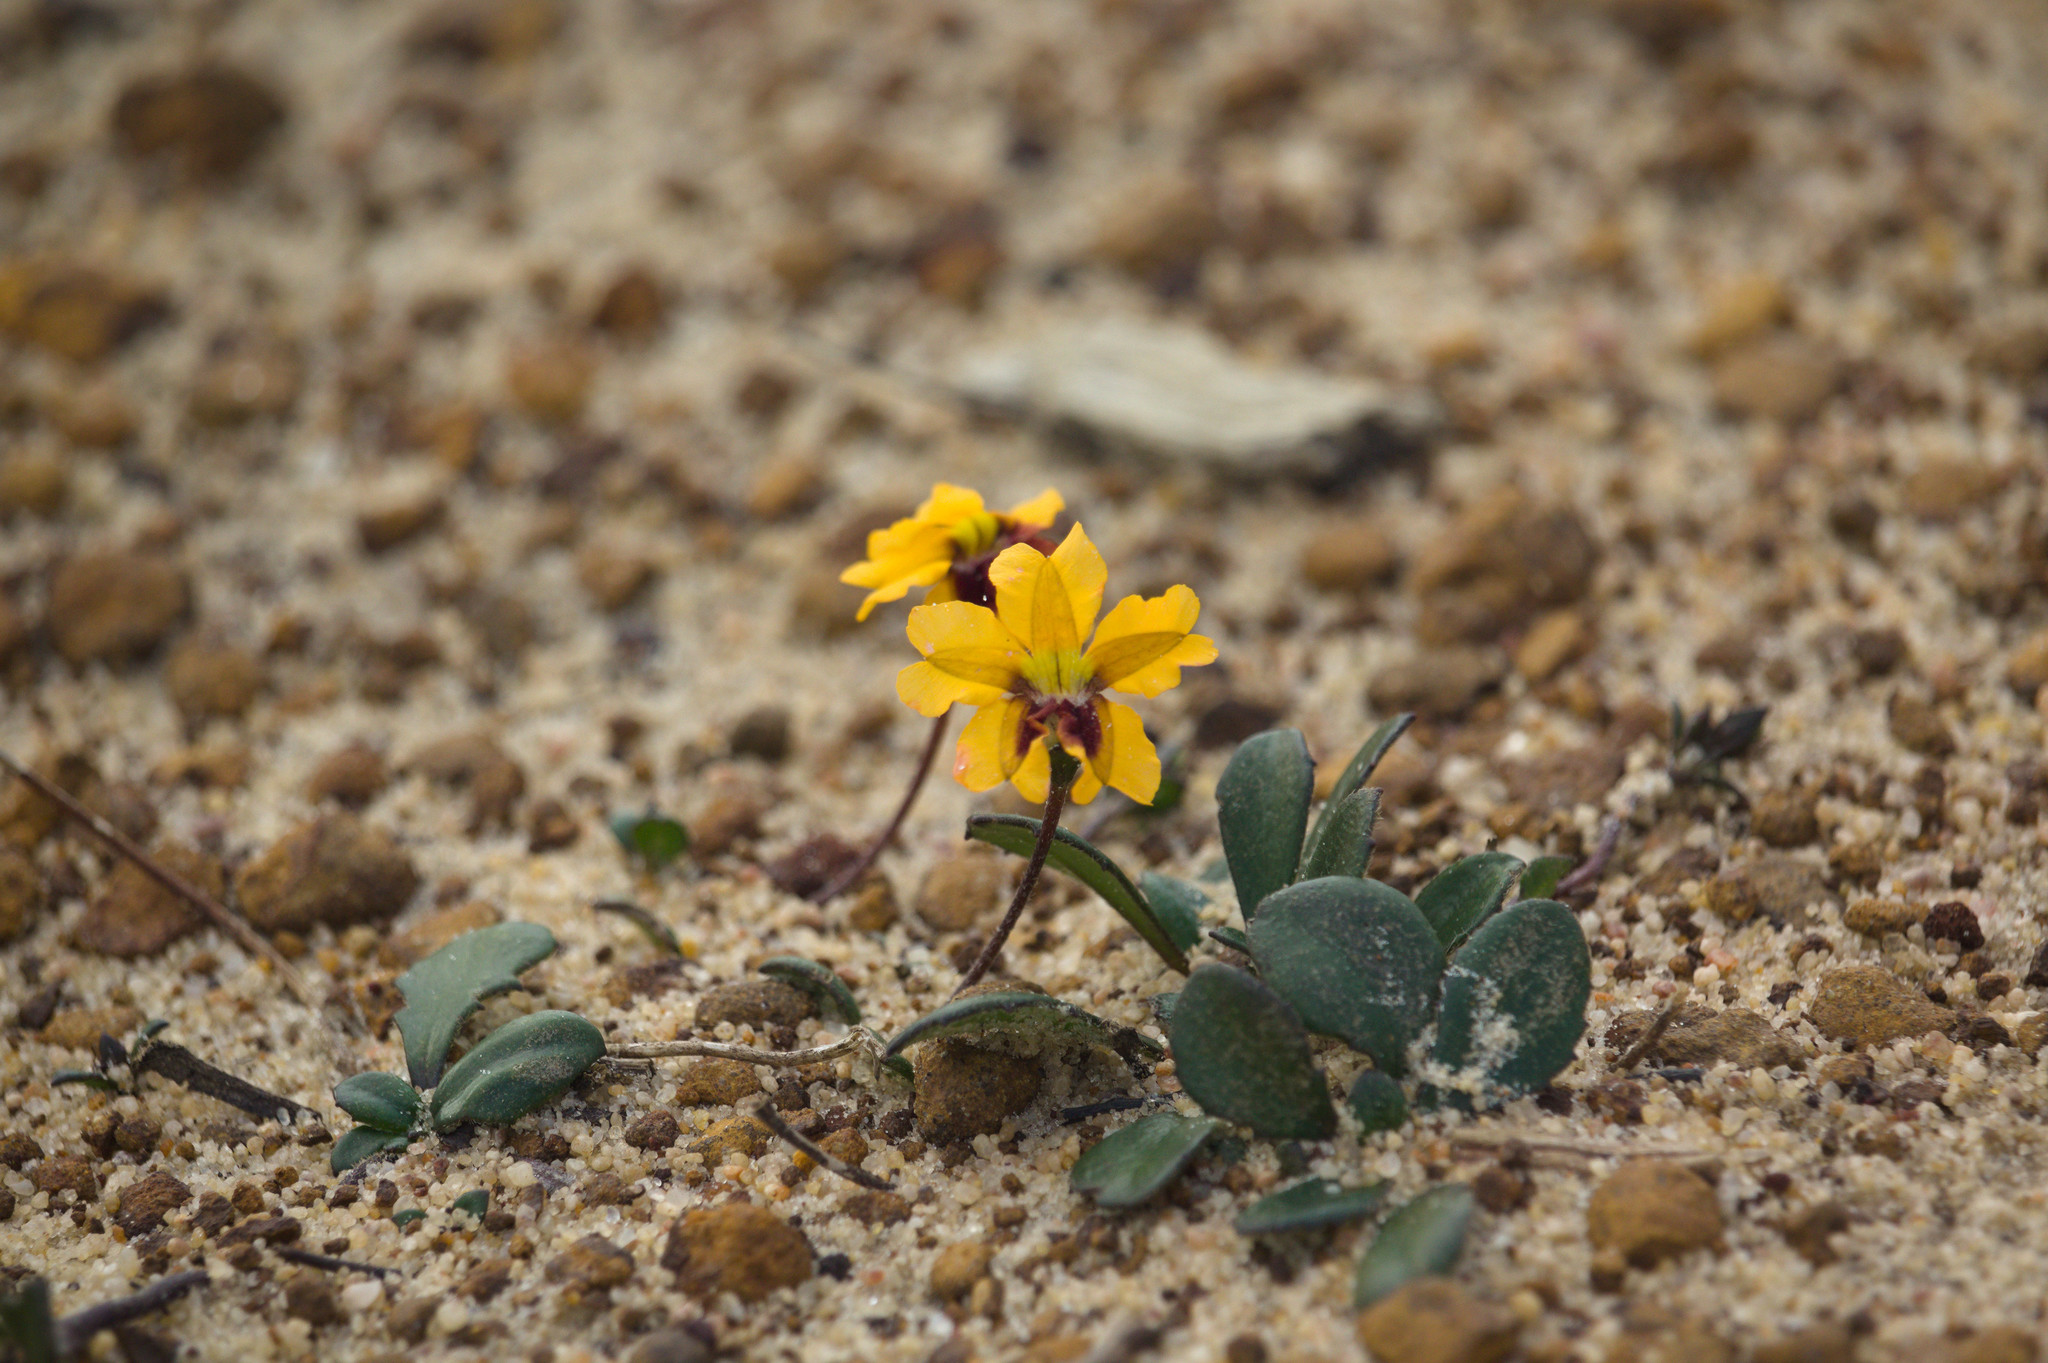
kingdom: Plantae
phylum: Tracheophyta
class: Magnoliopsida
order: Asterales
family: Goodeniaceae
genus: Goodenia
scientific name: Goodenia trinervis
